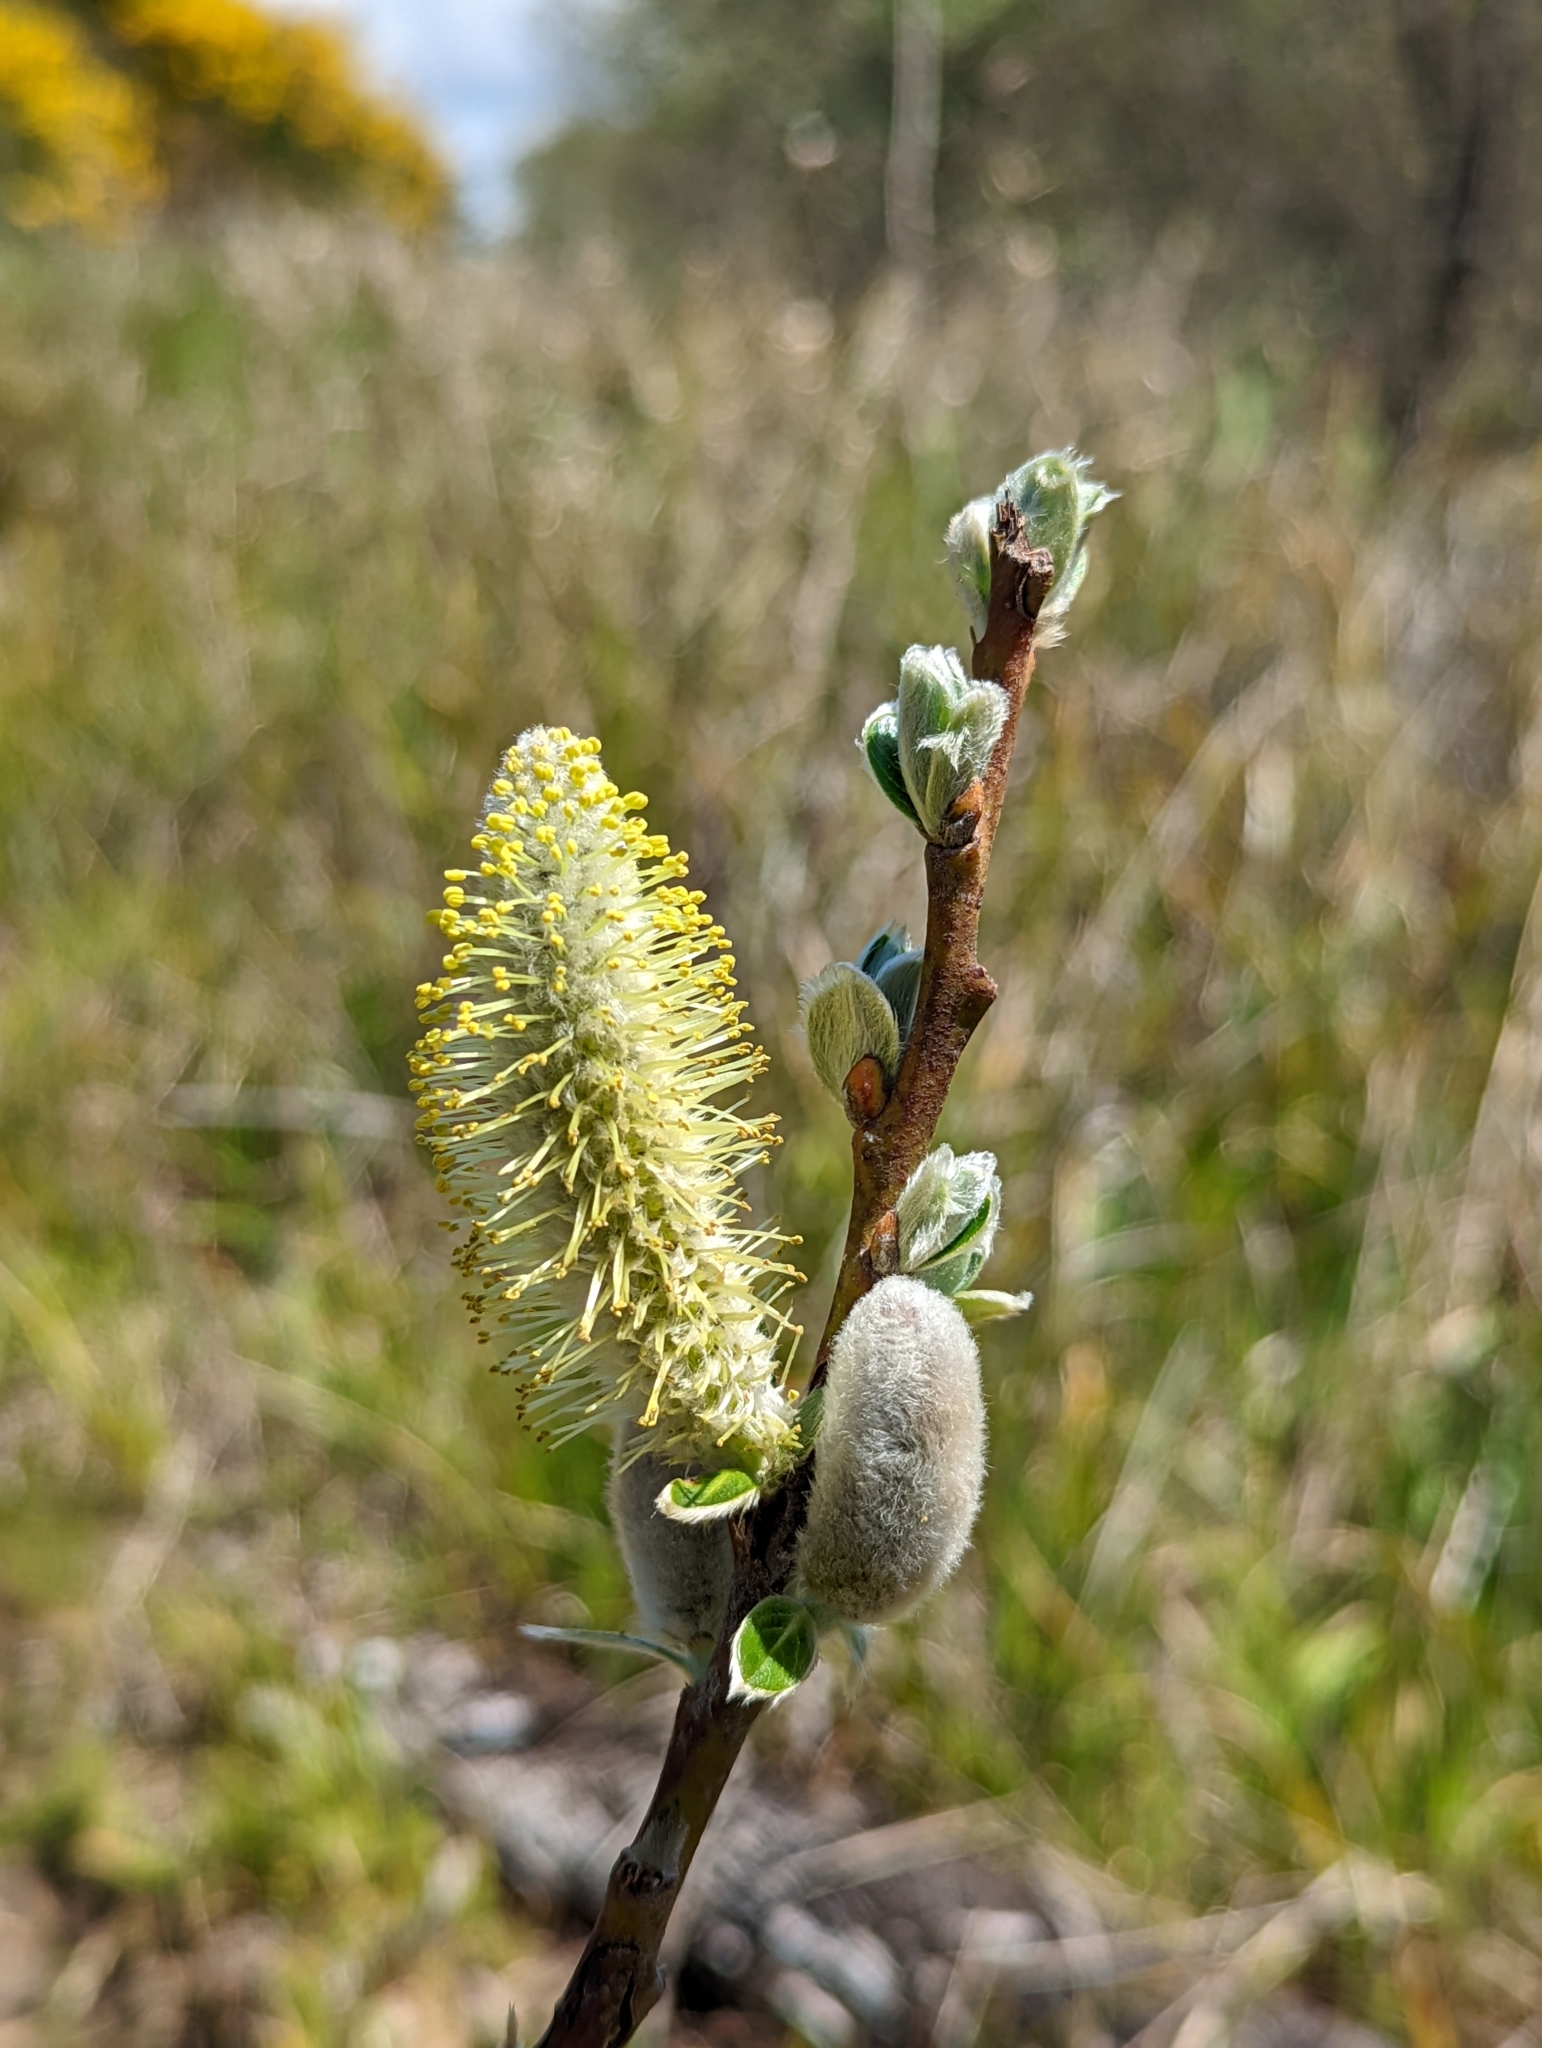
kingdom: Plantae
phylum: Tracheophyta
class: Magnoliopsida
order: Malpighiales
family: Salicaceae
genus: Salix
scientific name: Salix hookeriana
